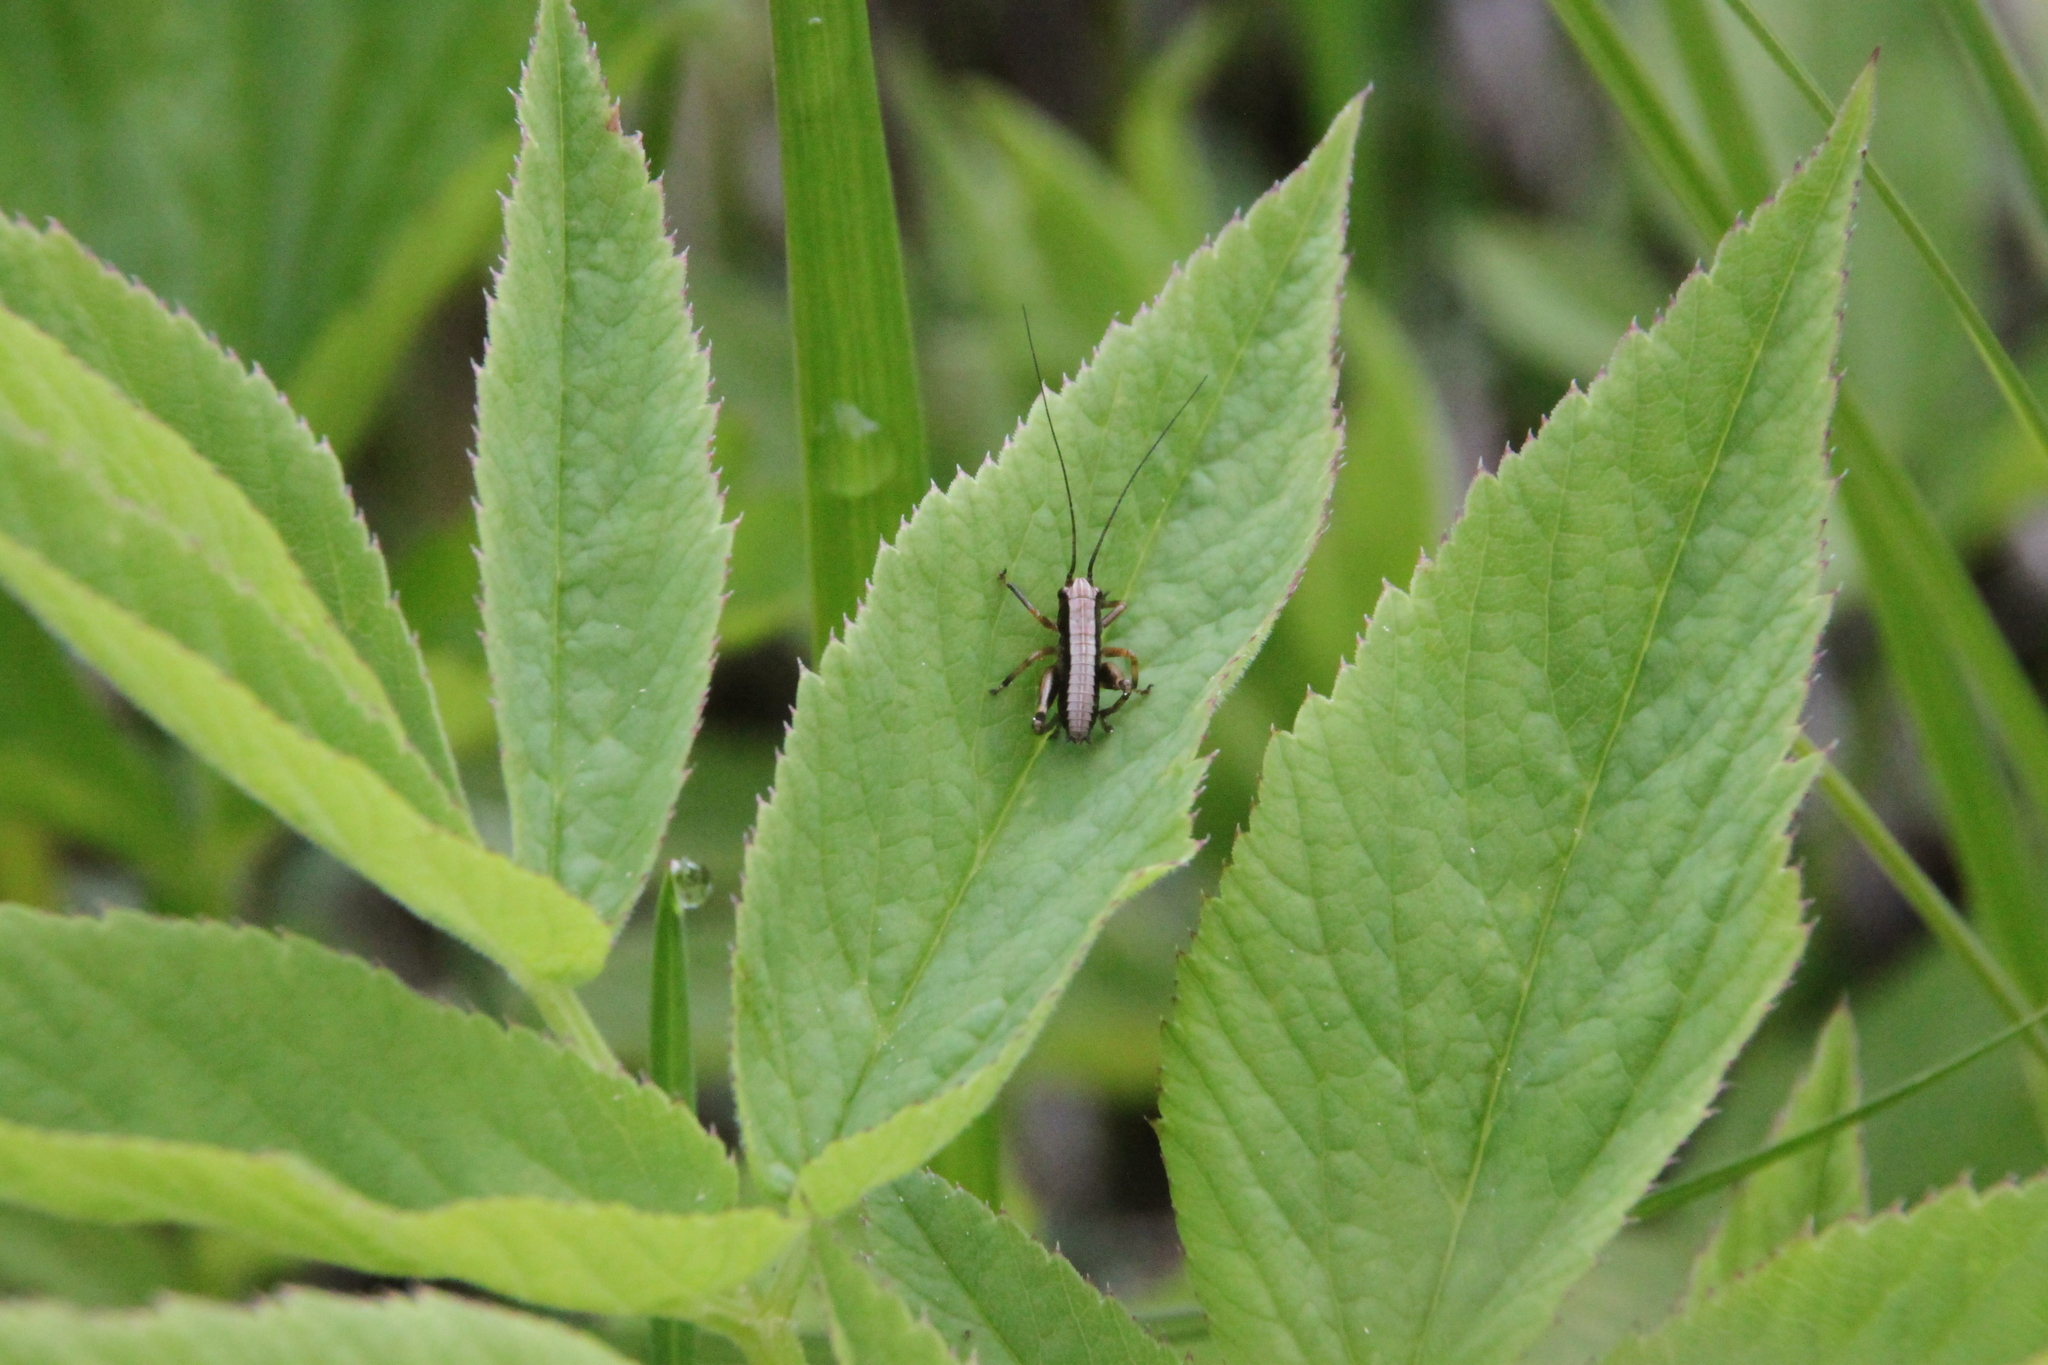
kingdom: Animalia
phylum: Arthropoda
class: Insecta
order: Orthoptera
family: Tettigoniidae
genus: Pholidoptera
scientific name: Pholidoptera griseoaptera
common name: Dark bush-cricket
